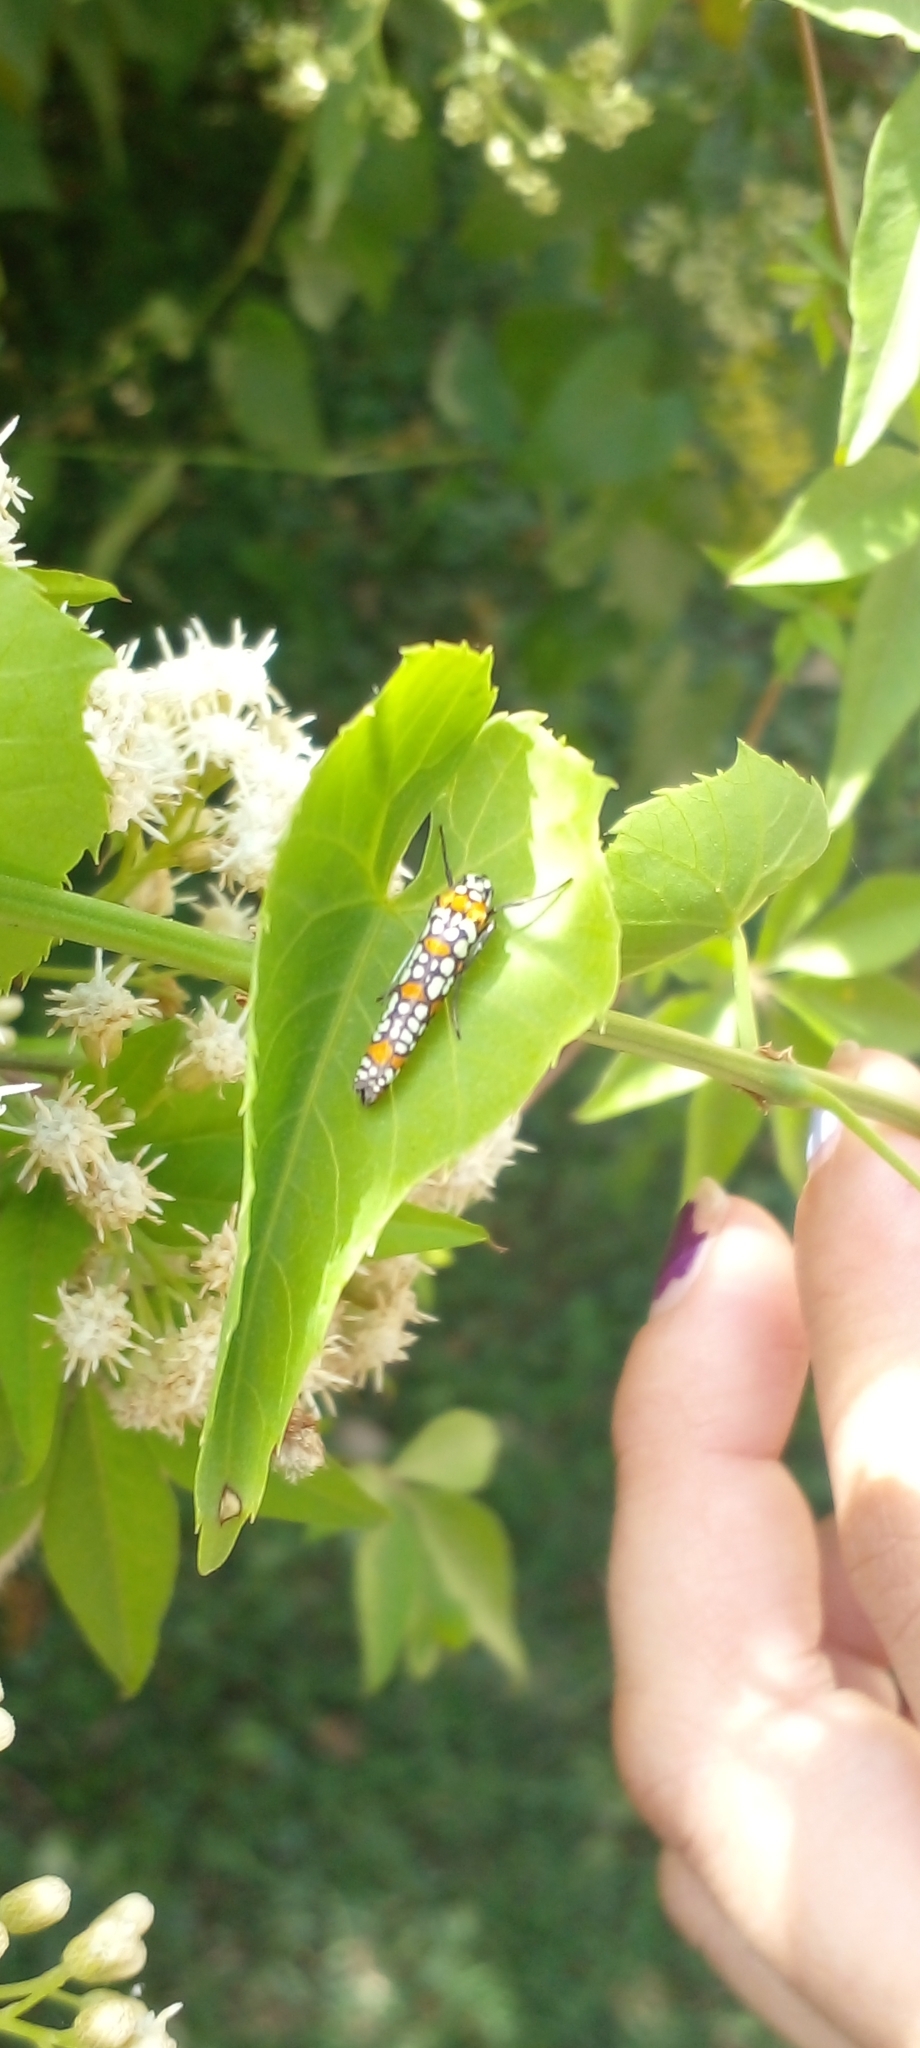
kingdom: Animalia
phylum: Arthropoda
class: Insecta
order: Lepidoptera
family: Attevidae
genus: Atteva
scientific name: Atteva punctella
